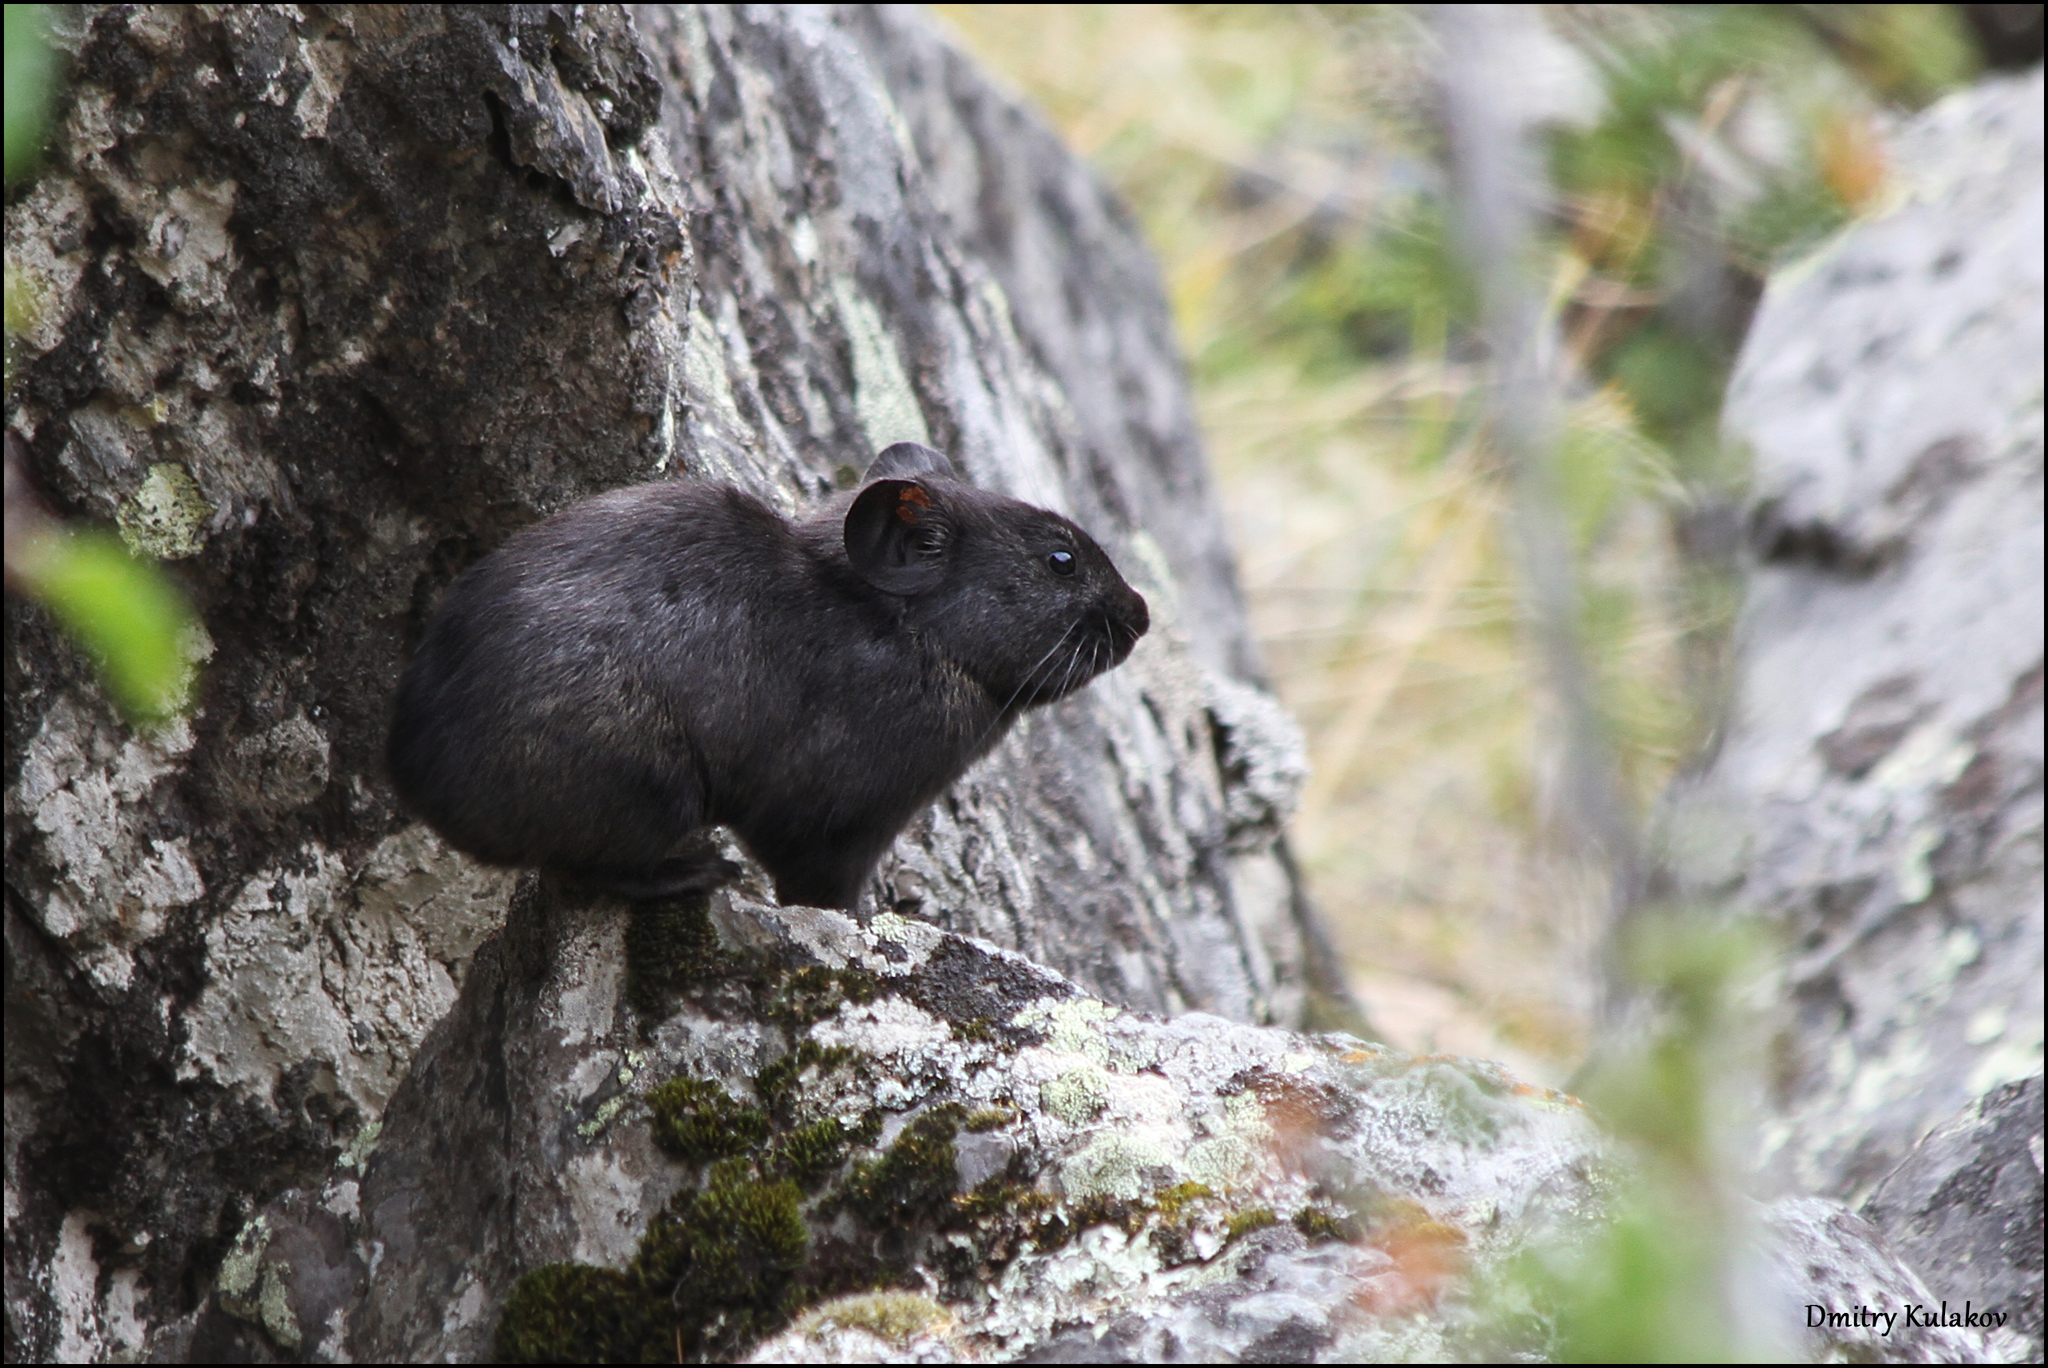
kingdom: Animalia
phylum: Chordata
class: Mammalia
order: Lagomorpha
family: Ochotonidae
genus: Ochotona
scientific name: Ochotona alpina
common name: Alpine pika
